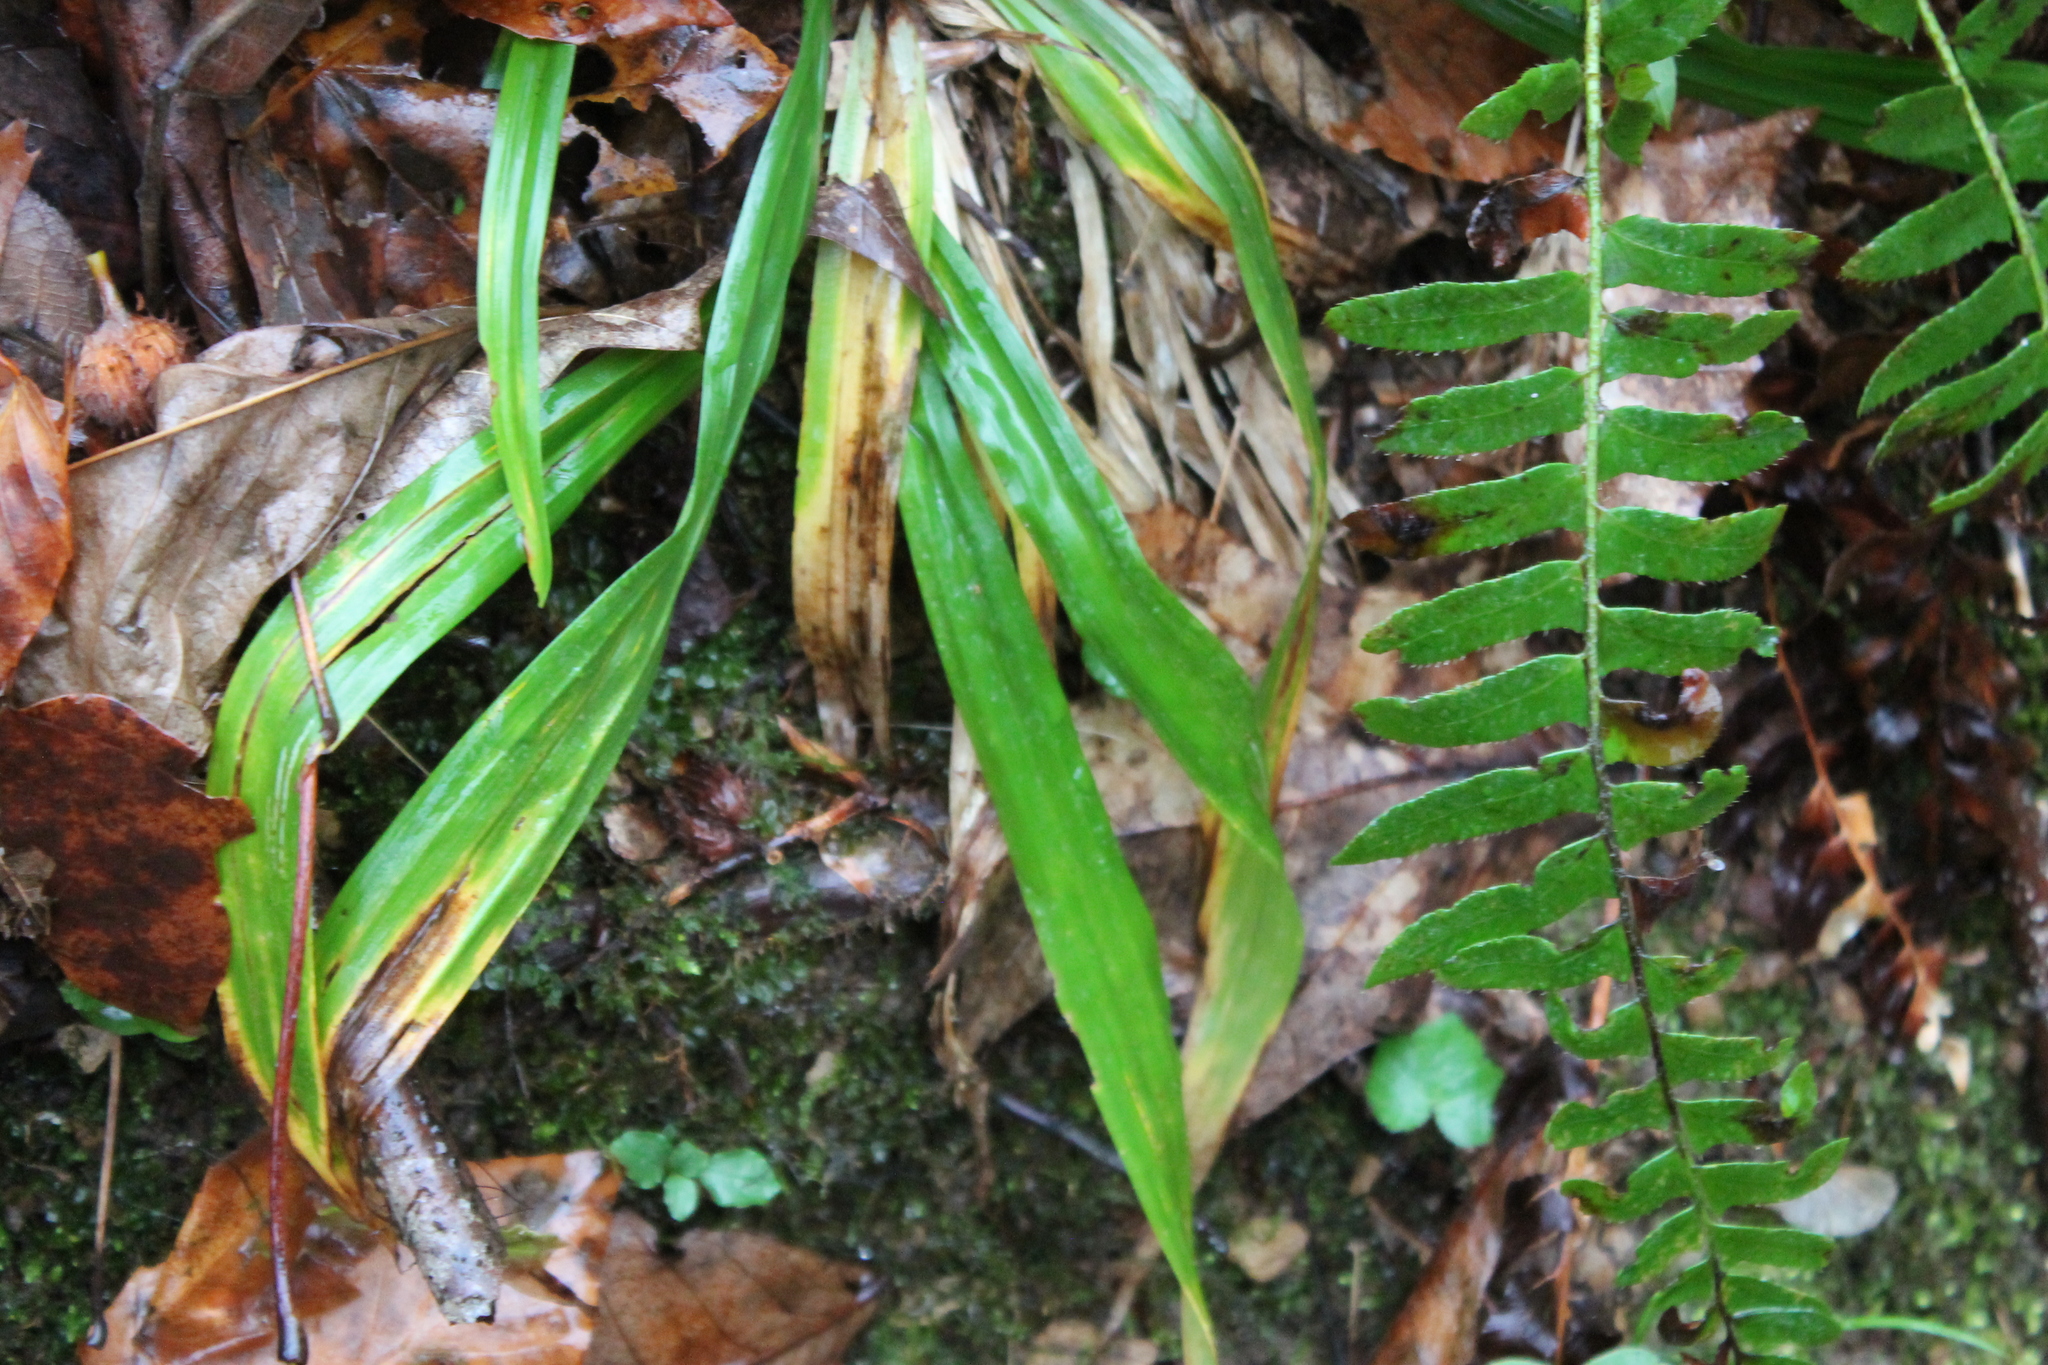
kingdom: Plantae
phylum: Tracheophyta
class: Liliopsida
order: Poales
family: Cyperaceae
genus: Carex
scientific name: Carex plantaginea
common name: Plantain-leaved sedge
